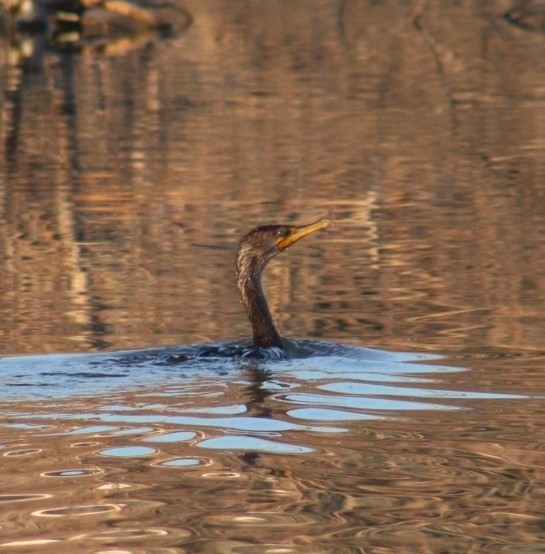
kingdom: Animalia
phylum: Chordata
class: Aves
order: Suliformes
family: Phalacrocoracidae
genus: Phalacrocorax
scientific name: Phalacrocorax auritus
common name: Double-crested cormorant
